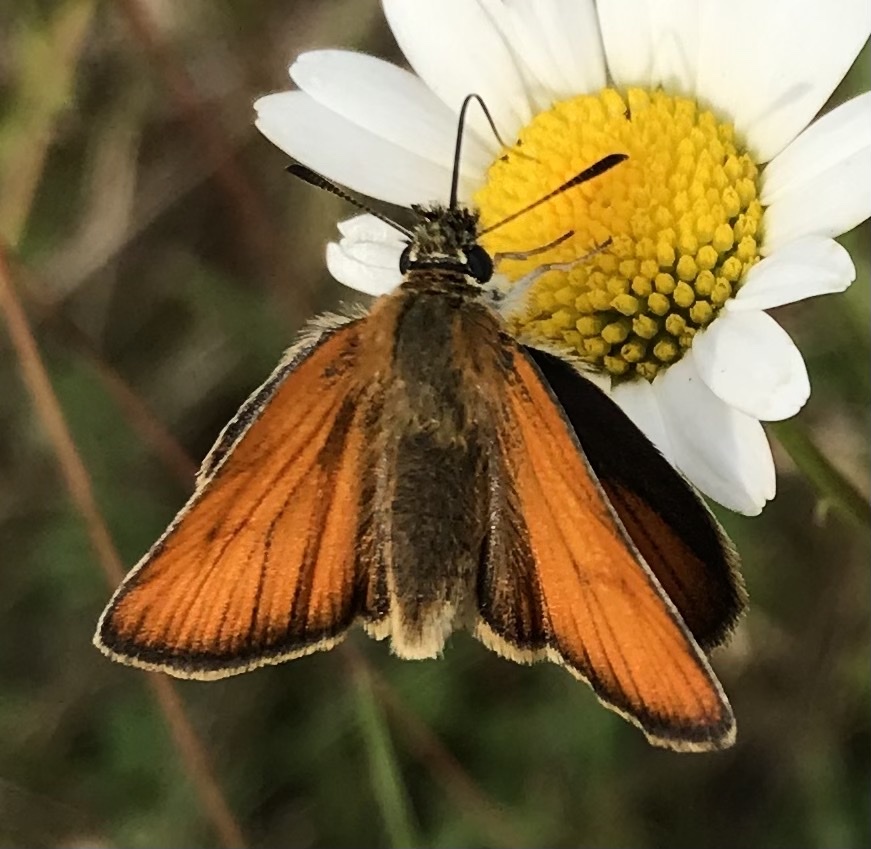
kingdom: Animalia
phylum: Arthropoda
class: Insecta
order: Lepidoptera
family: Hesperiidae
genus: Thymelicus
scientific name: Thymelicus lineola
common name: Essex skipper
